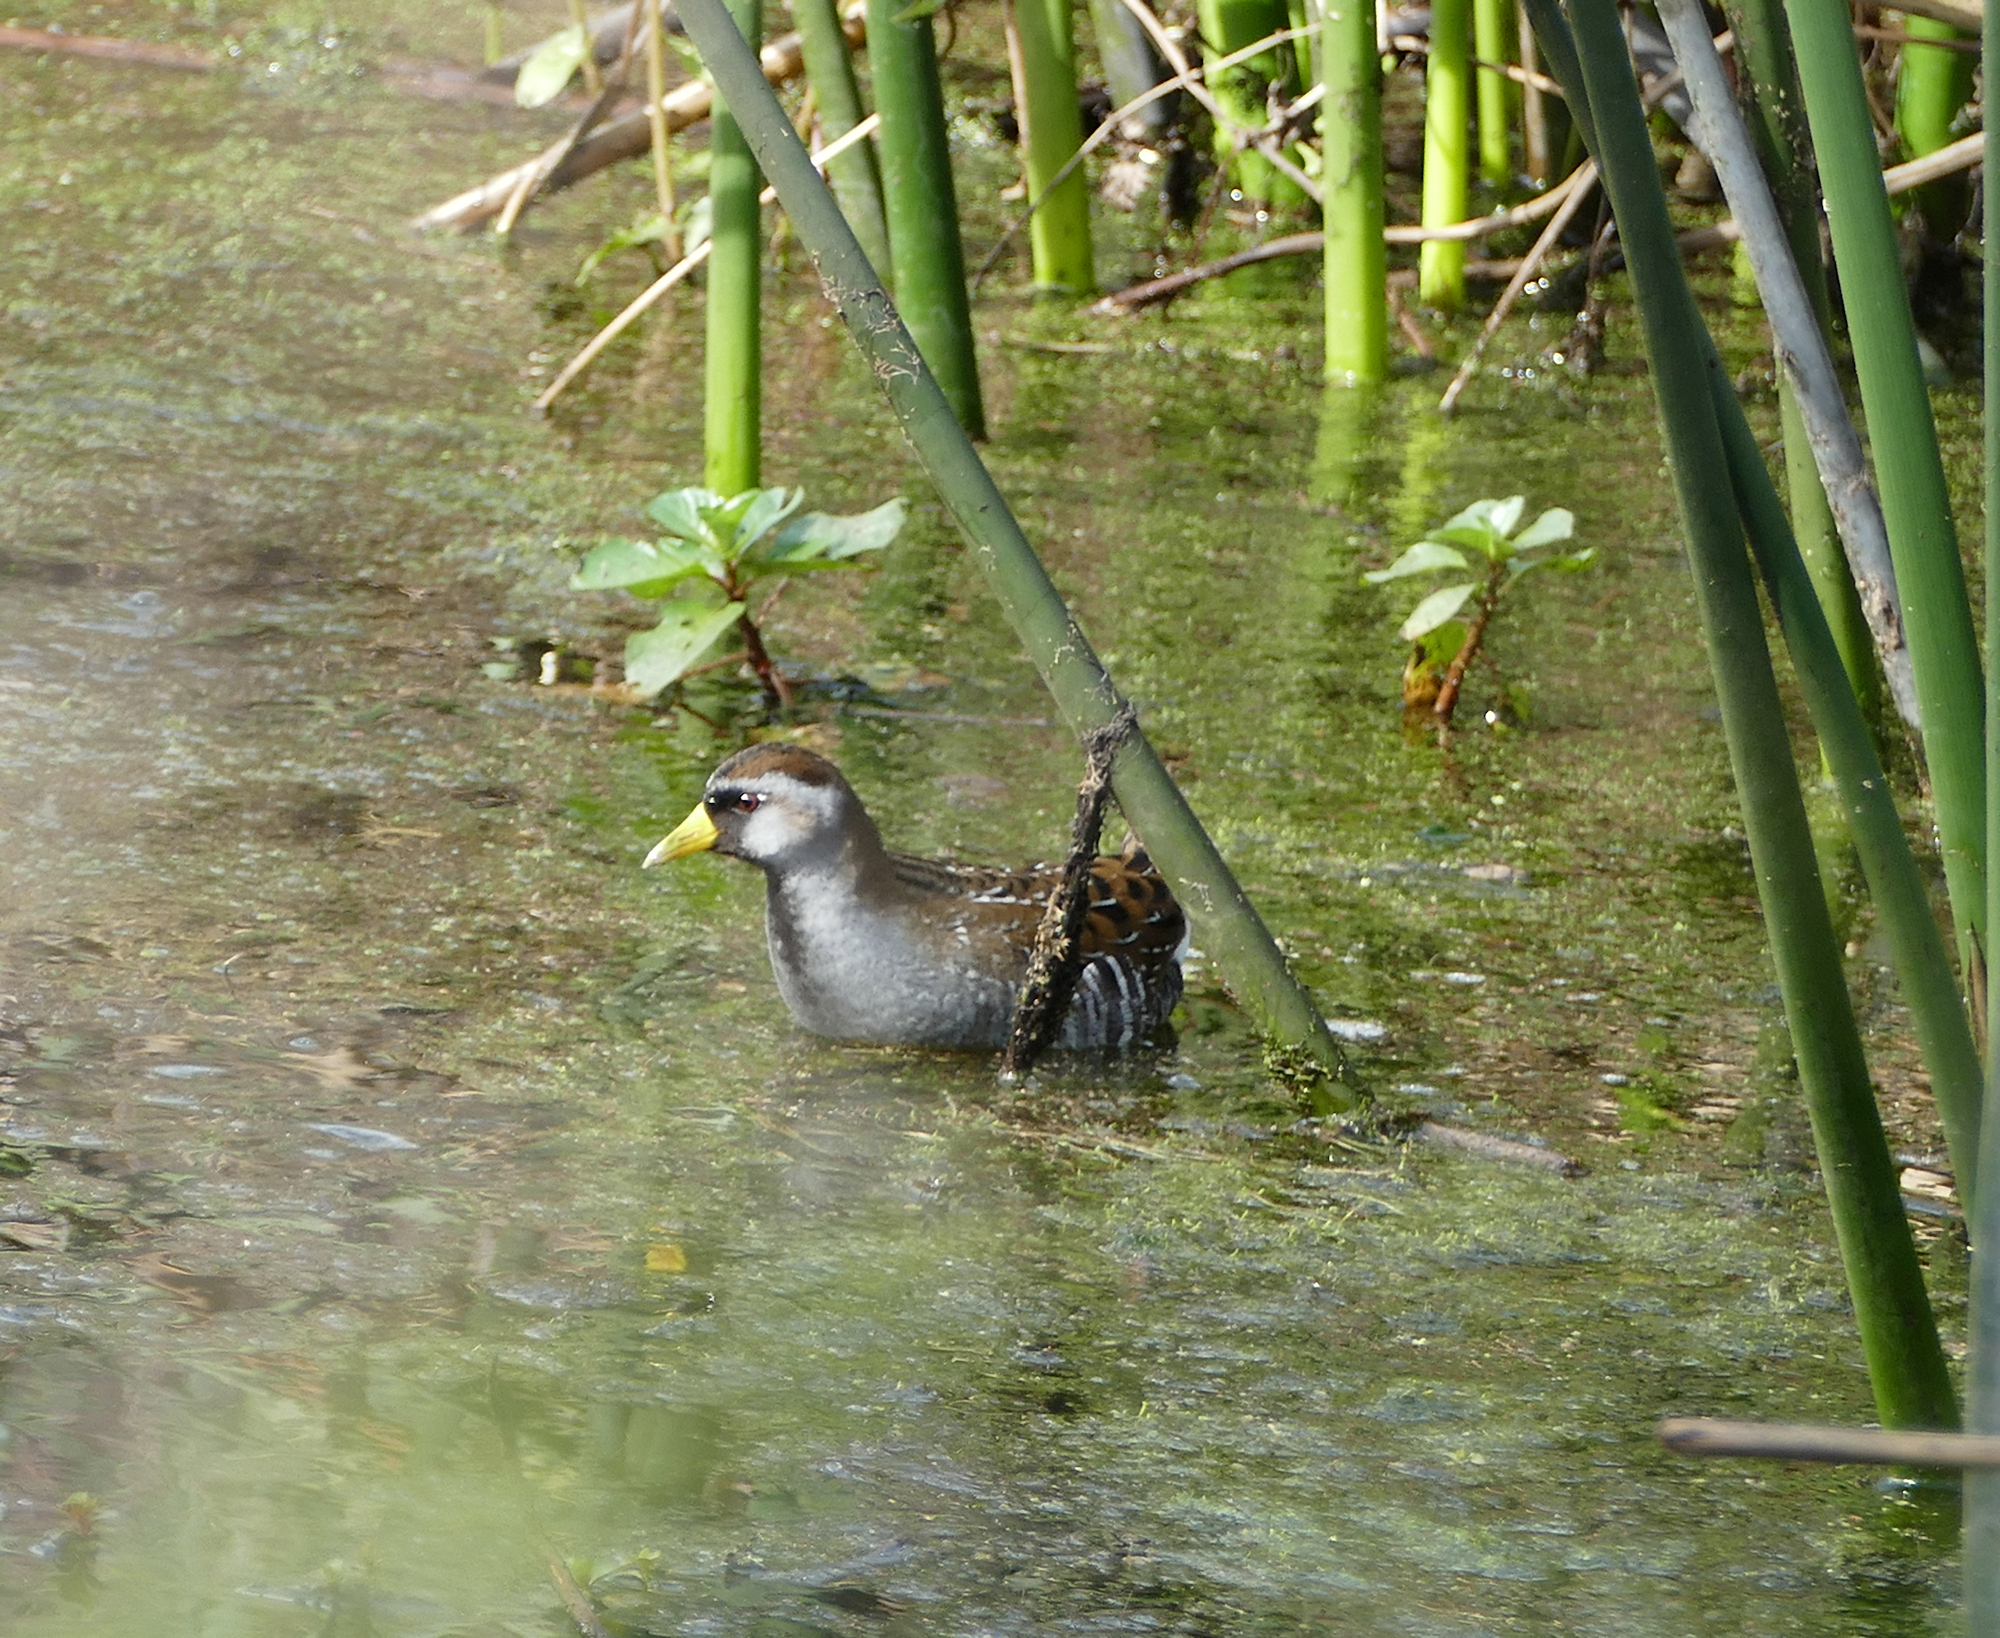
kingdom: Animalia
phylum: Chordata
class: Aves
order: Gruiformes
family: Rallidae
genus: Porzana
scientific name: Porzana carolina
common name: Sora
